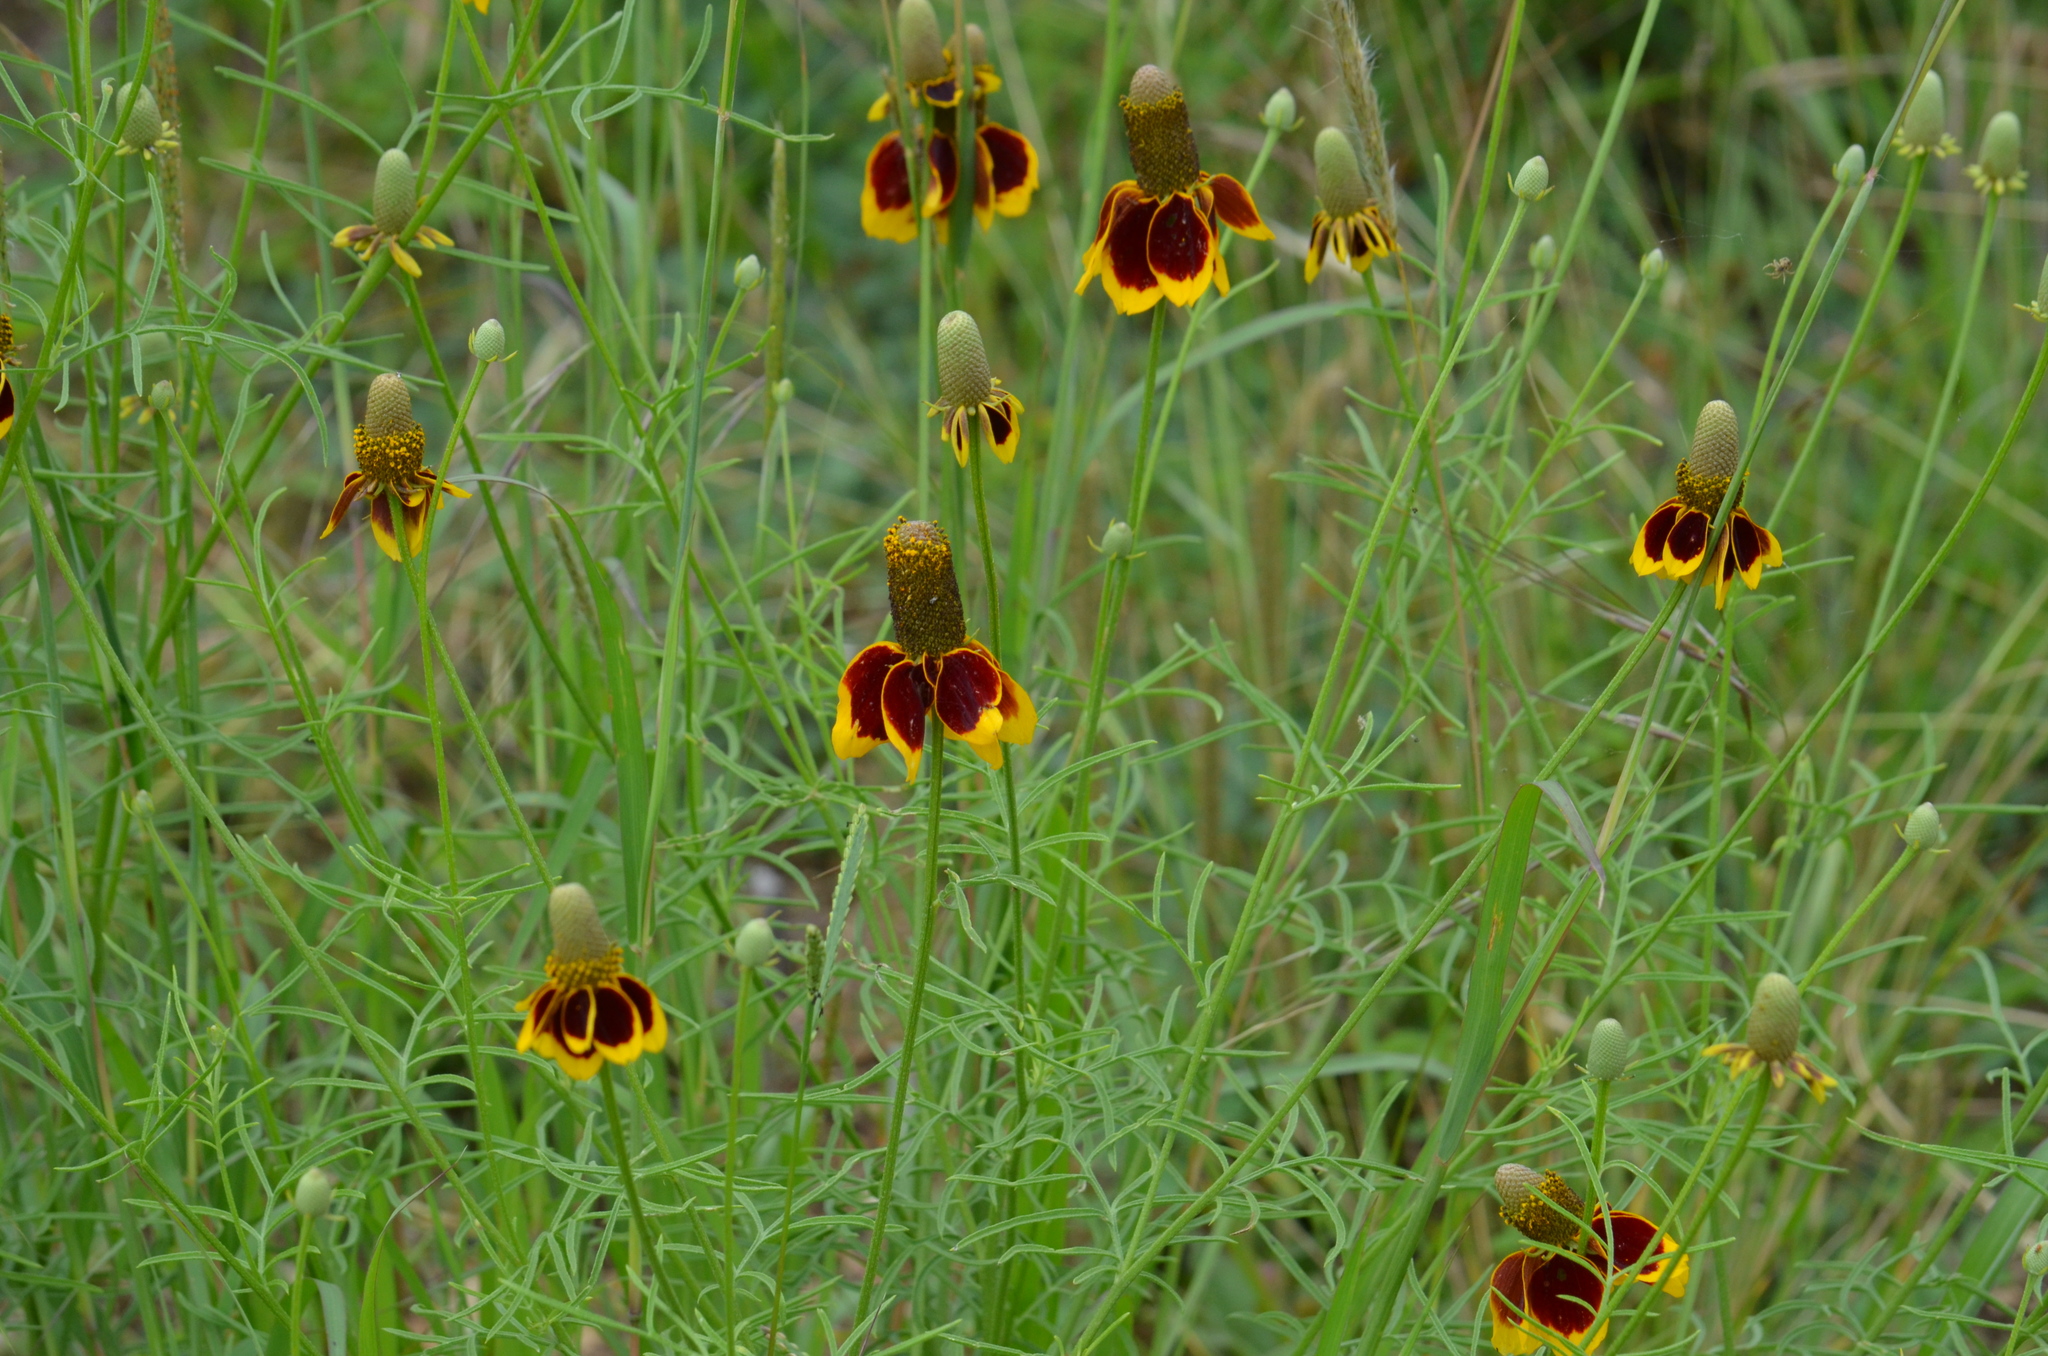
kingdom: Plantae
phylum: Tracheophyta
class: Magnoliopsida
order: Asterales
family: Asteraceae
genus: Ratibida
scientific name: Ratibida columnifera
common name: Prairie coneflower
